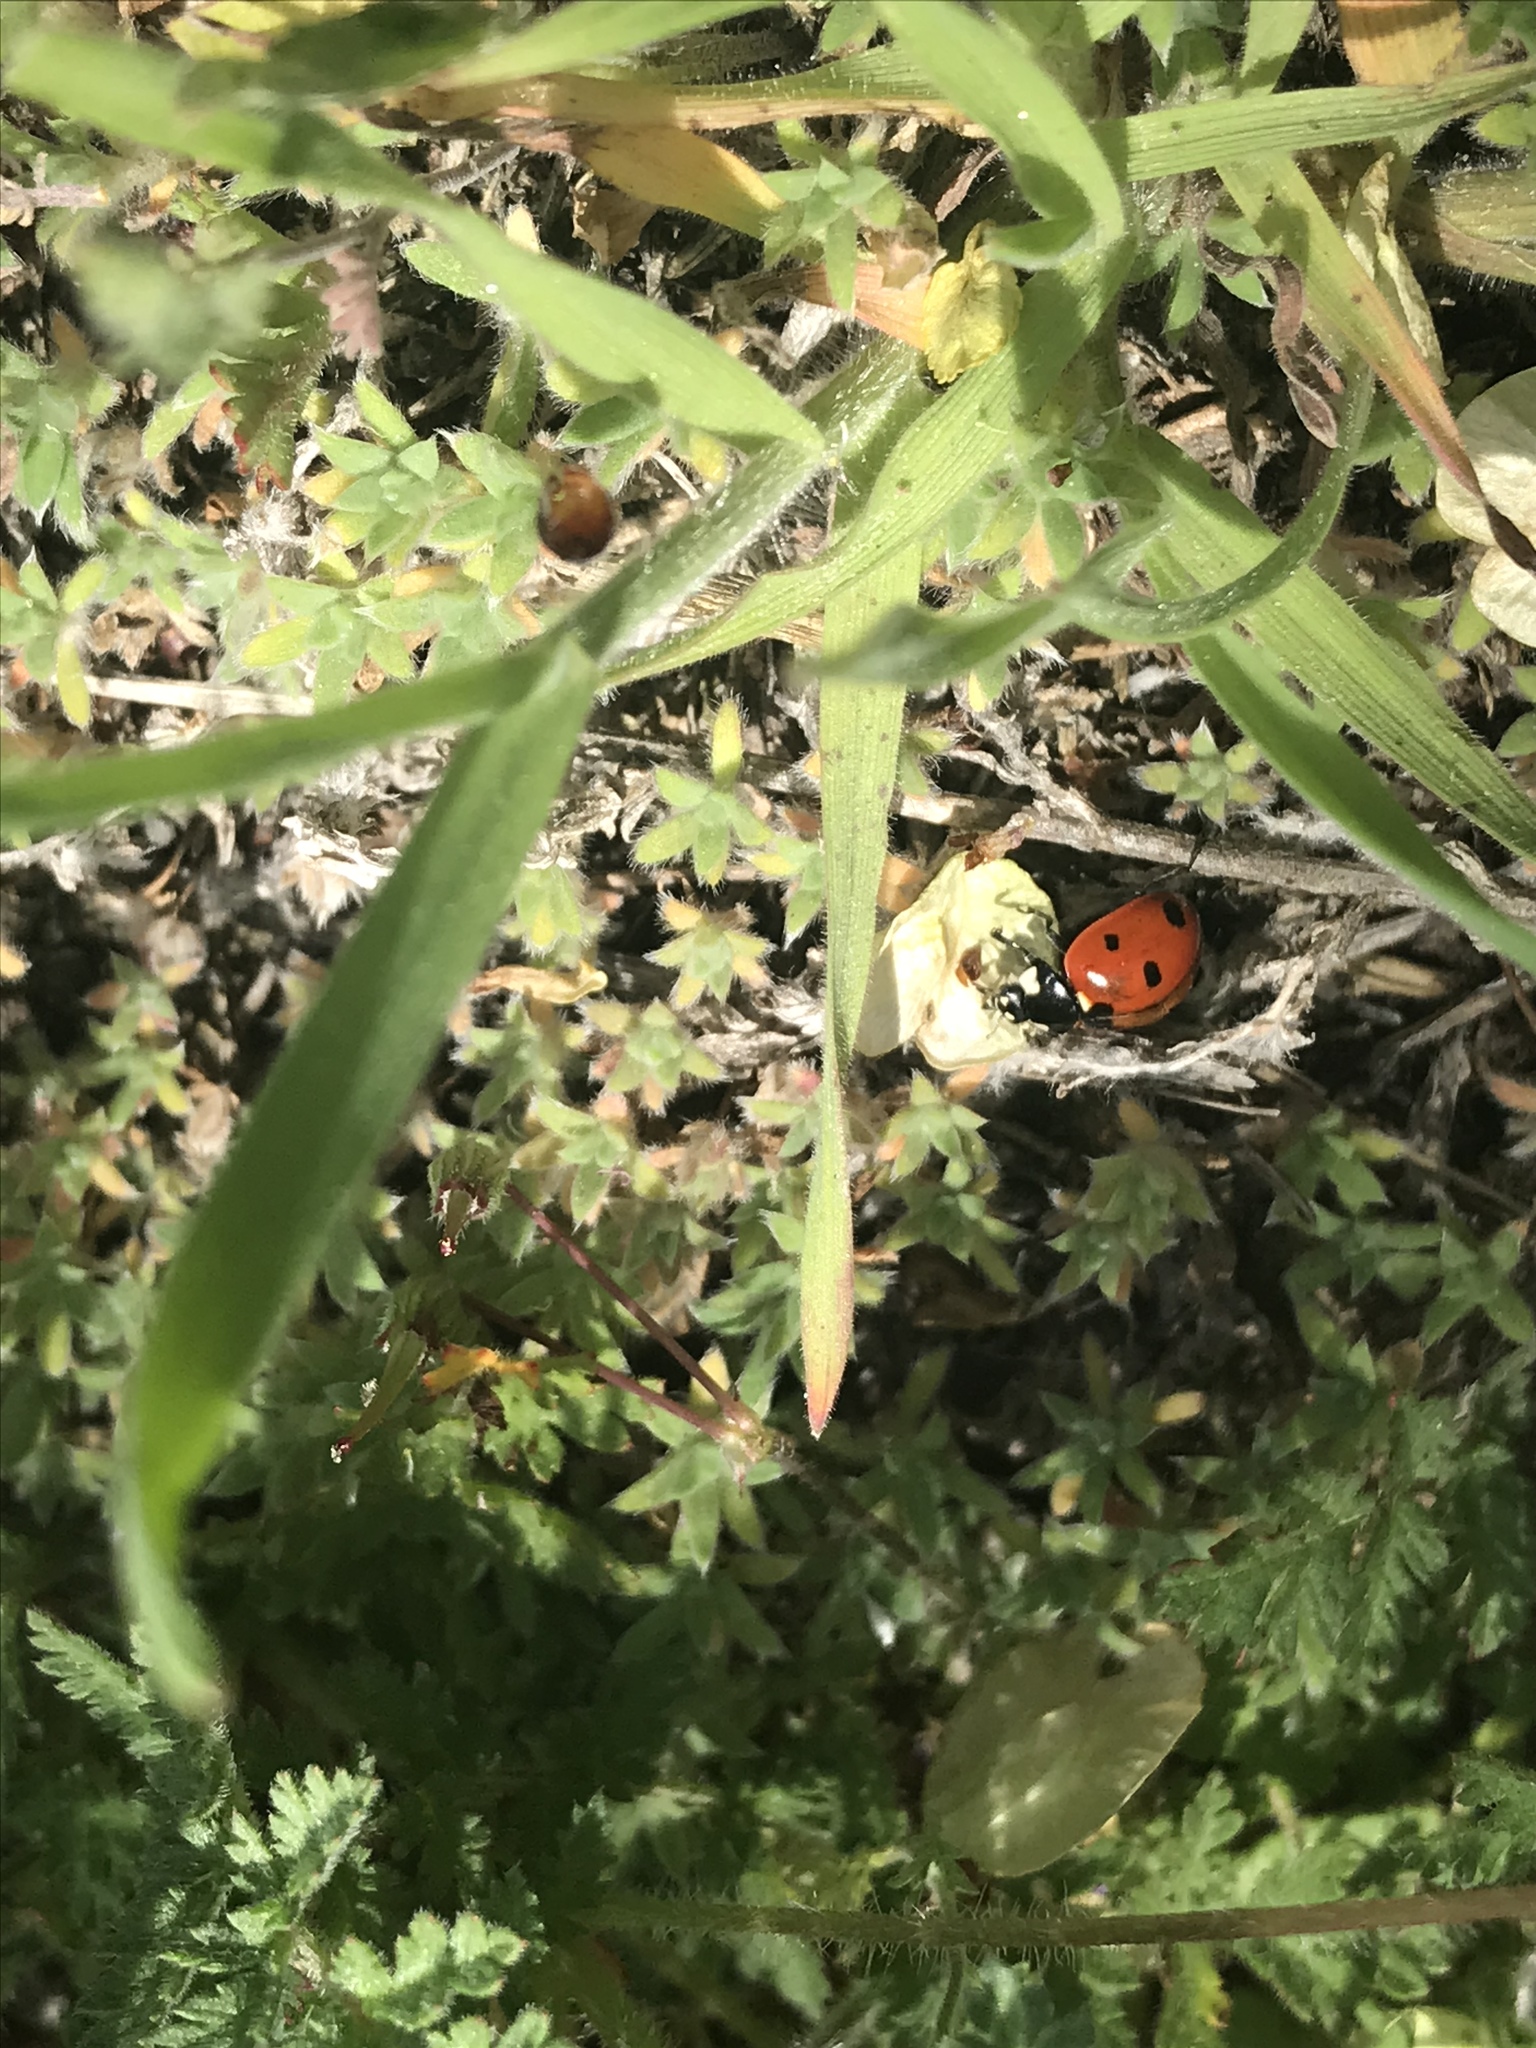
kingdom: Animalia
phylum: Arthropoda
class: Insecta
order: Coleoptera
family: Coccinellidae
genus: Coccinella
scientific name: Coccinella septempunctata
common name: Sevenspotted lady beetle
